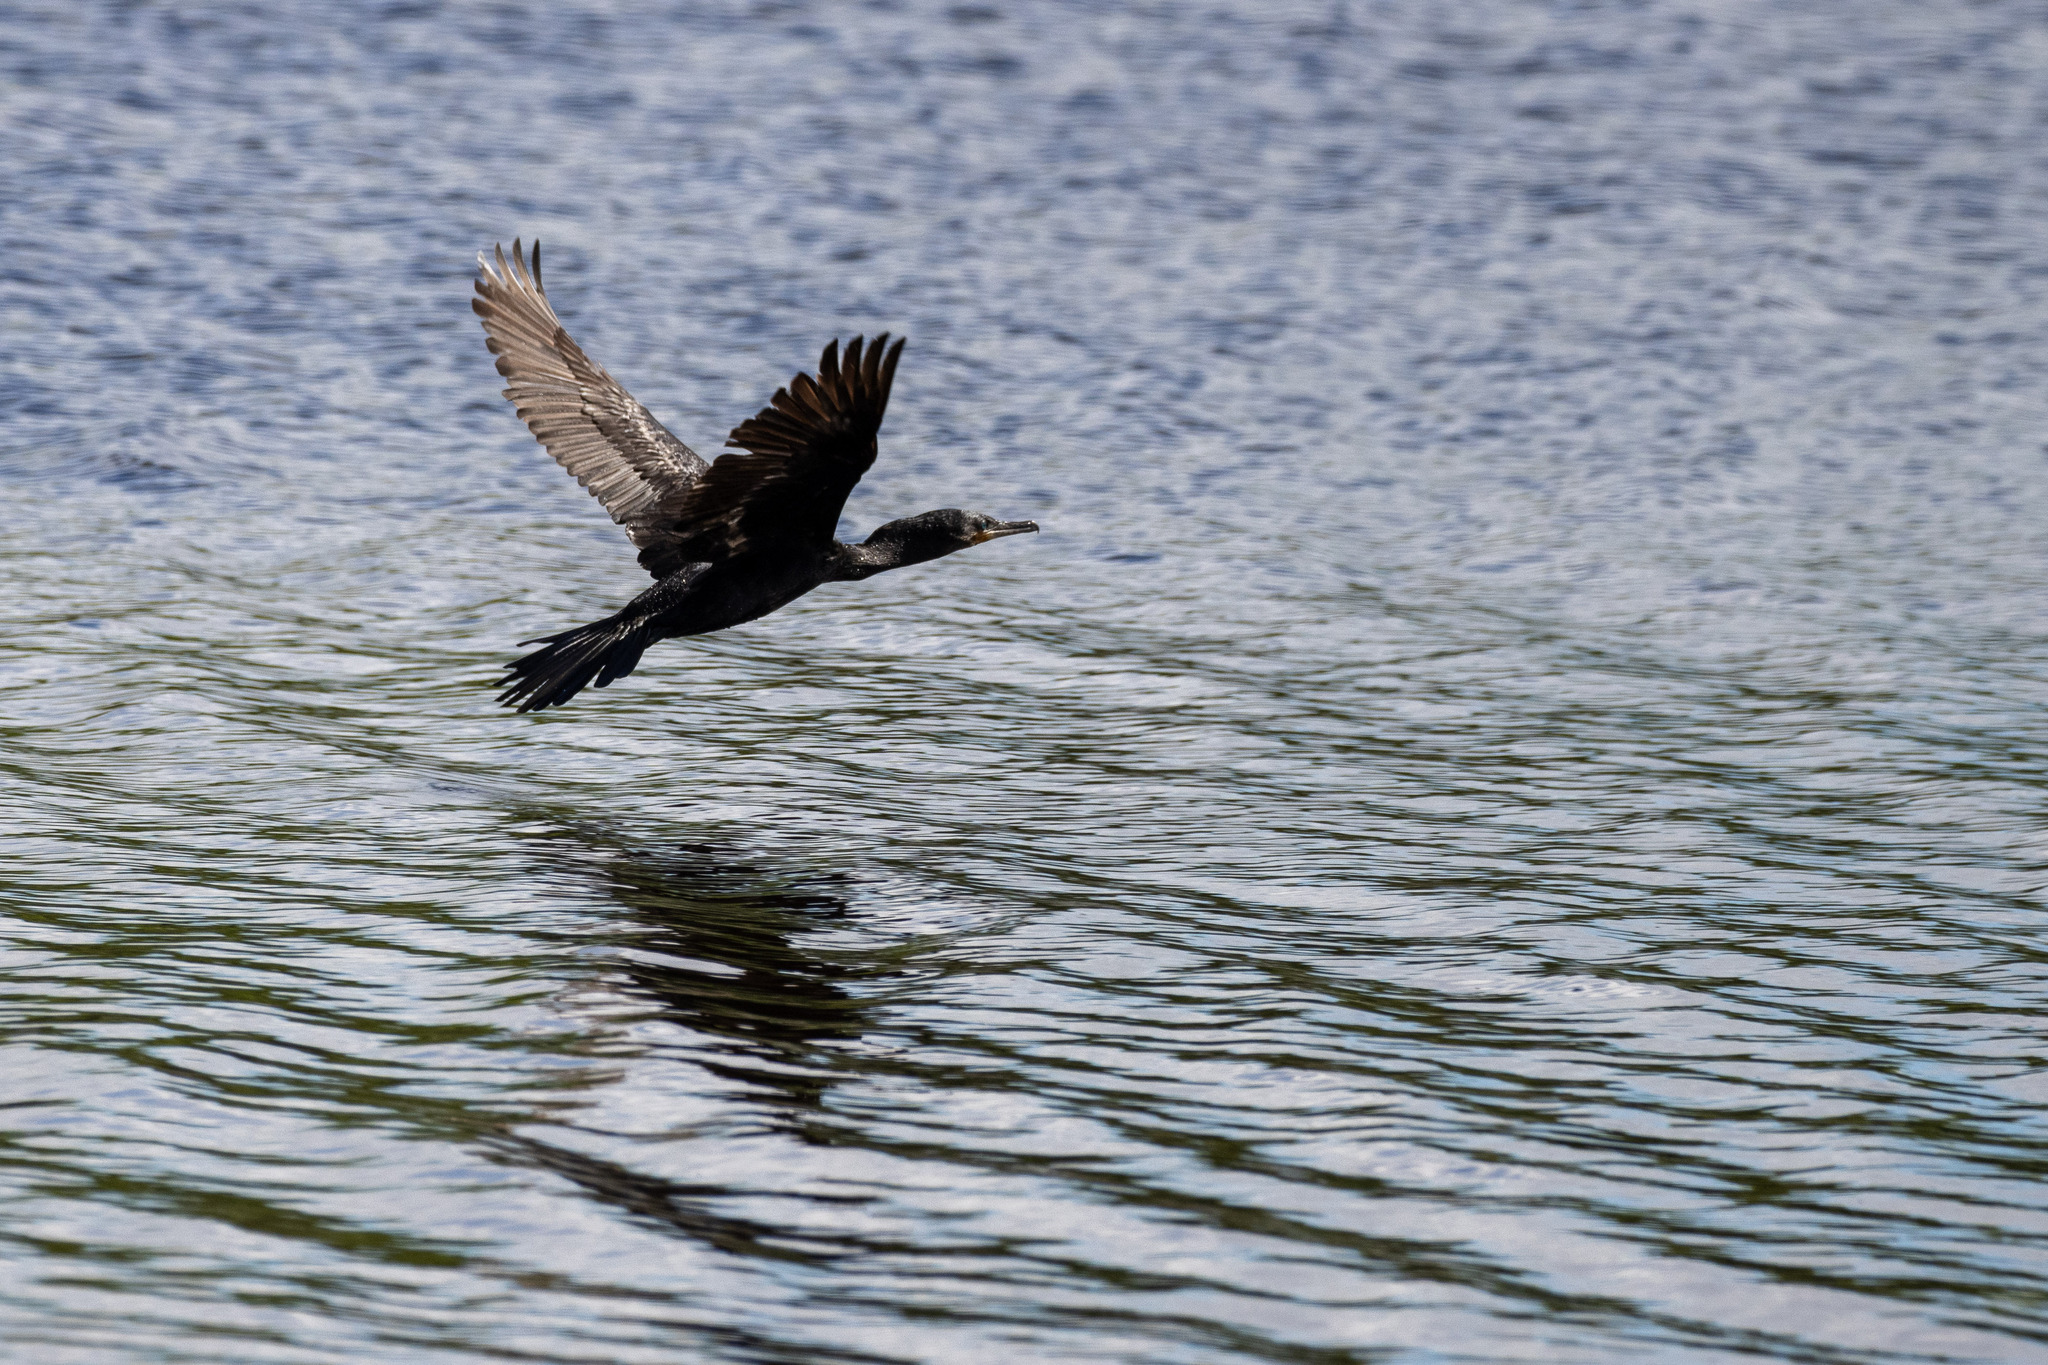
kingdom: Animalia
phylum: Chordata
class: Aves
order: Suliformes
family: Phalacrocoracidae
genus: Phalacrocorax
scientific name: Phalacrocorax brasilianus
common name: Neotropic cormorant
